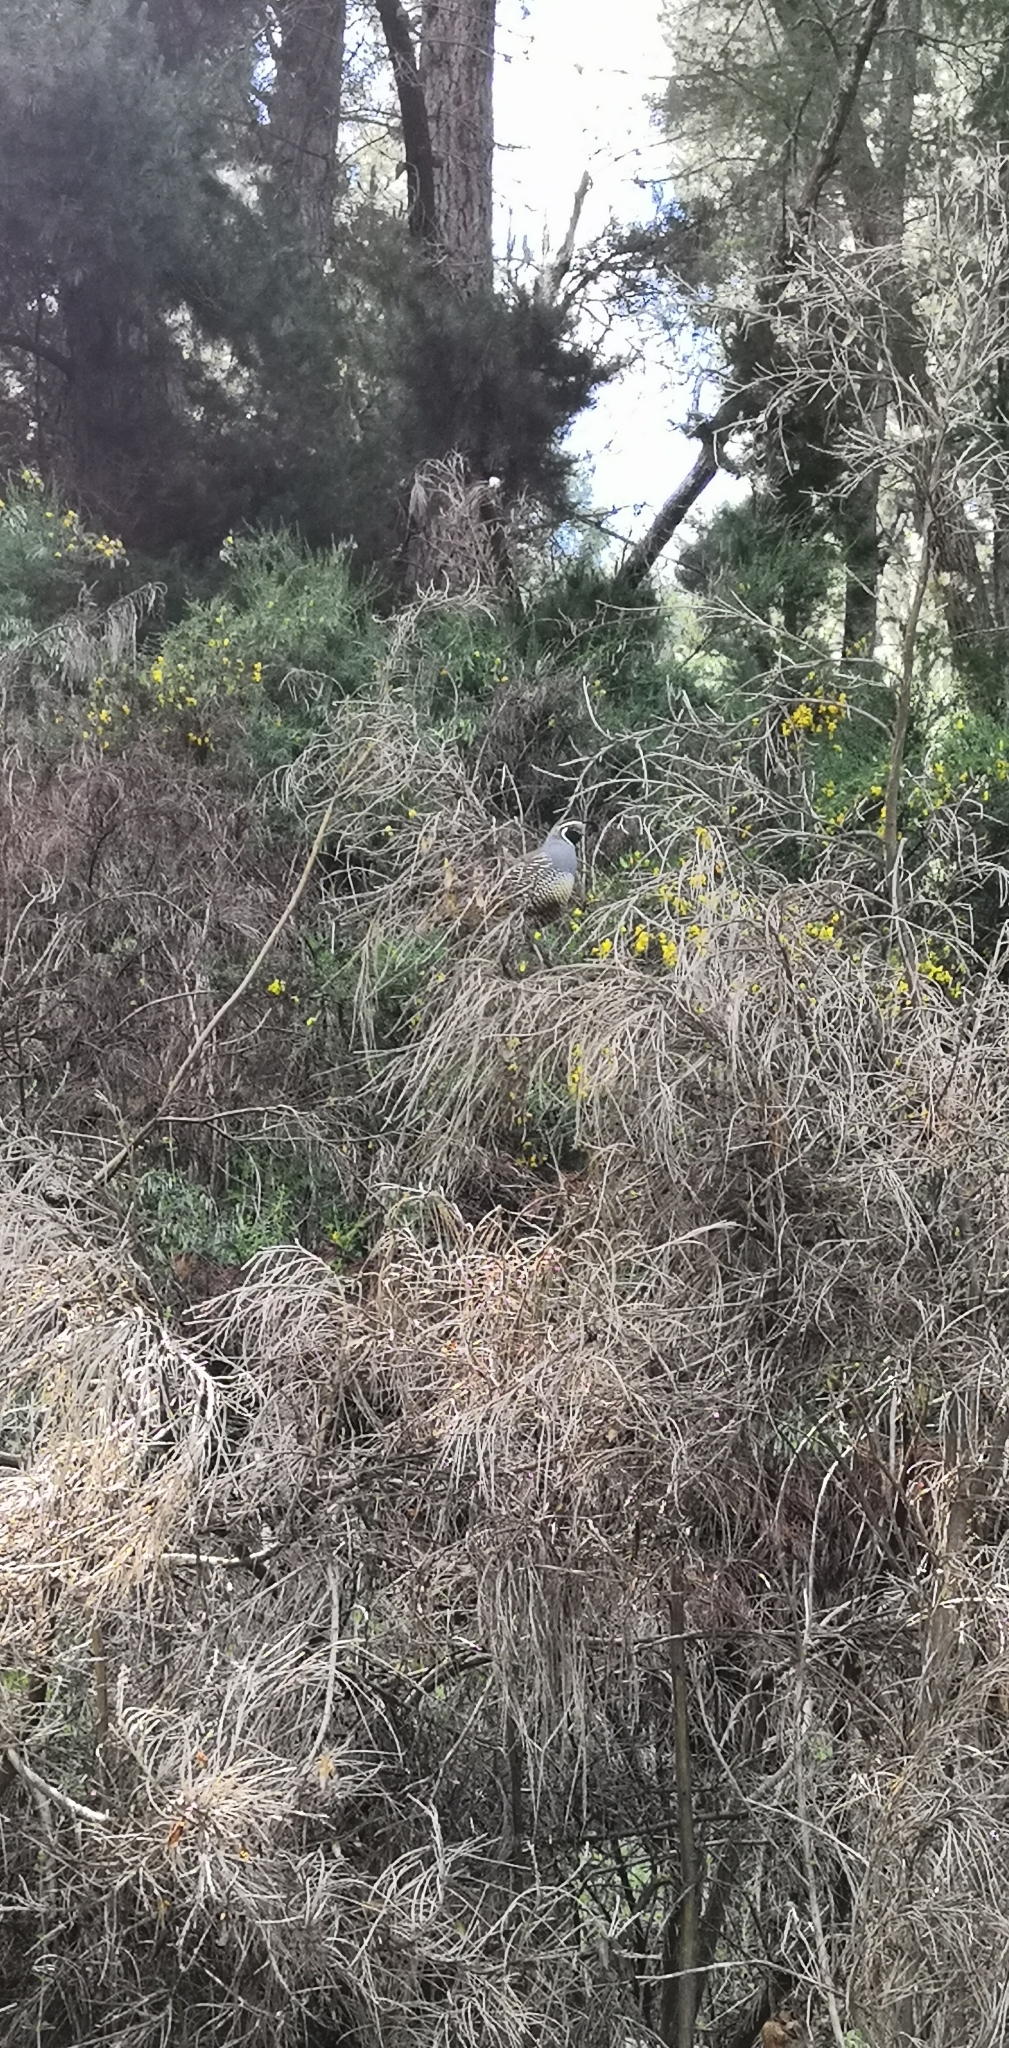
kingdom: Animalia
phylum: Chordata
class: Aves
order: Galliformes
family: Odontophoridae
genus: Callipepla
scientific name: Callipepla californica
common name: California quail
